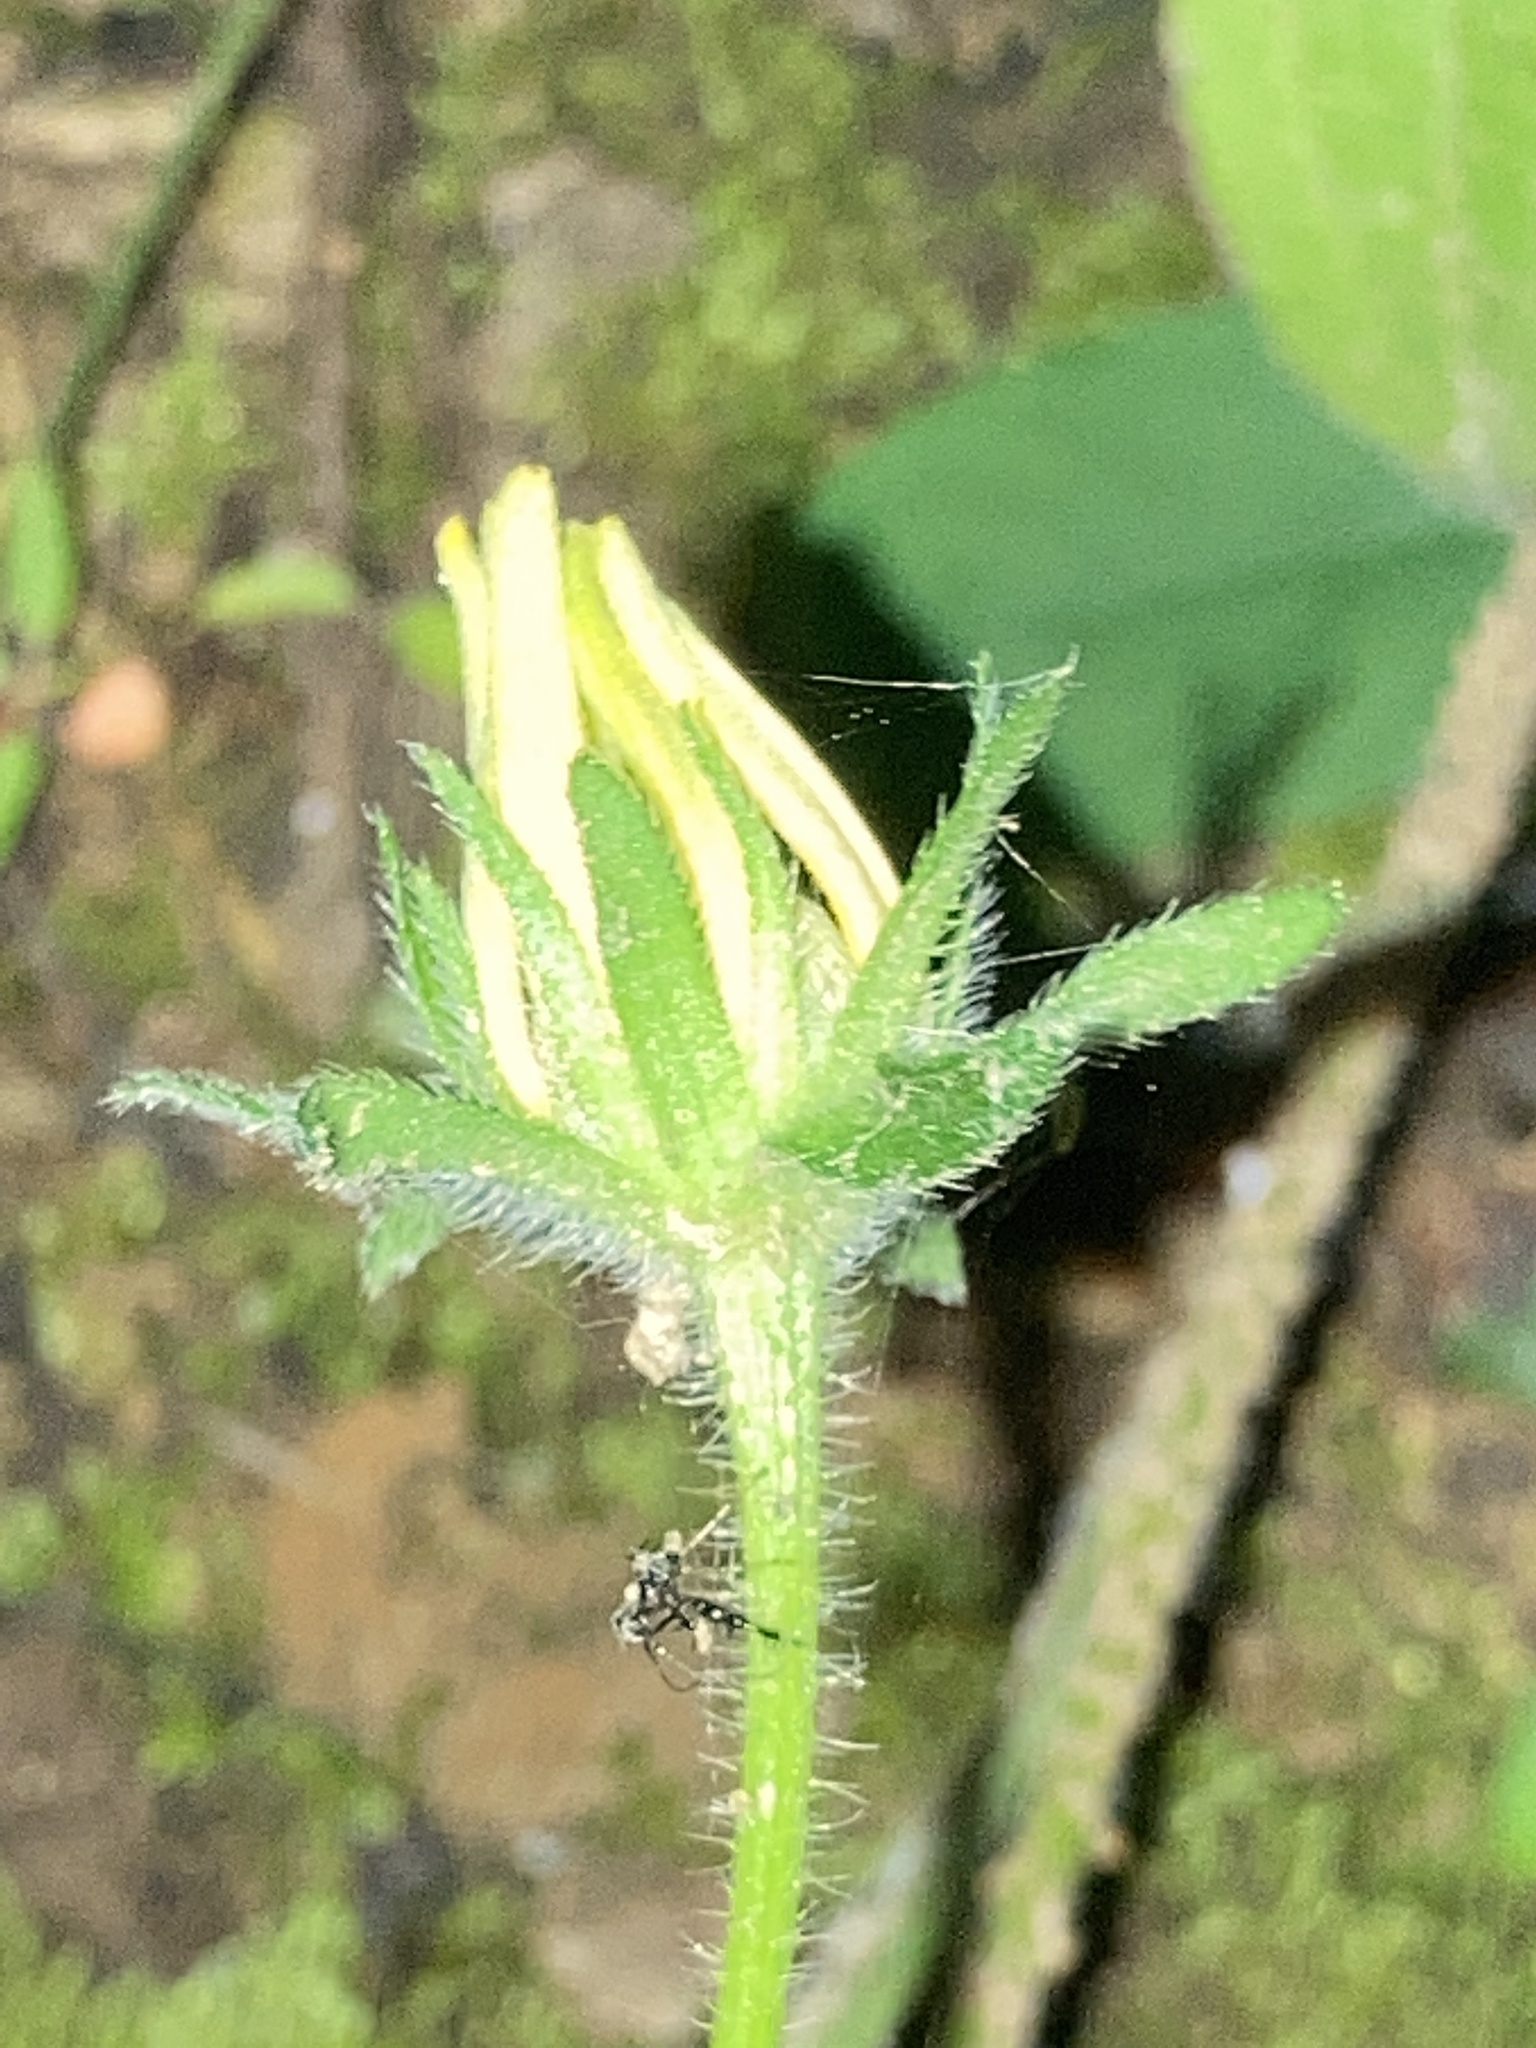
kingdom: Plantae
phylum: Tracheophyta
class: Magnoliopsida
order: Asterales
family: Asteraceae
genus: Rudbeckia
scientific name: Rudbeckia hirta
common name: Black-eyed-susan
